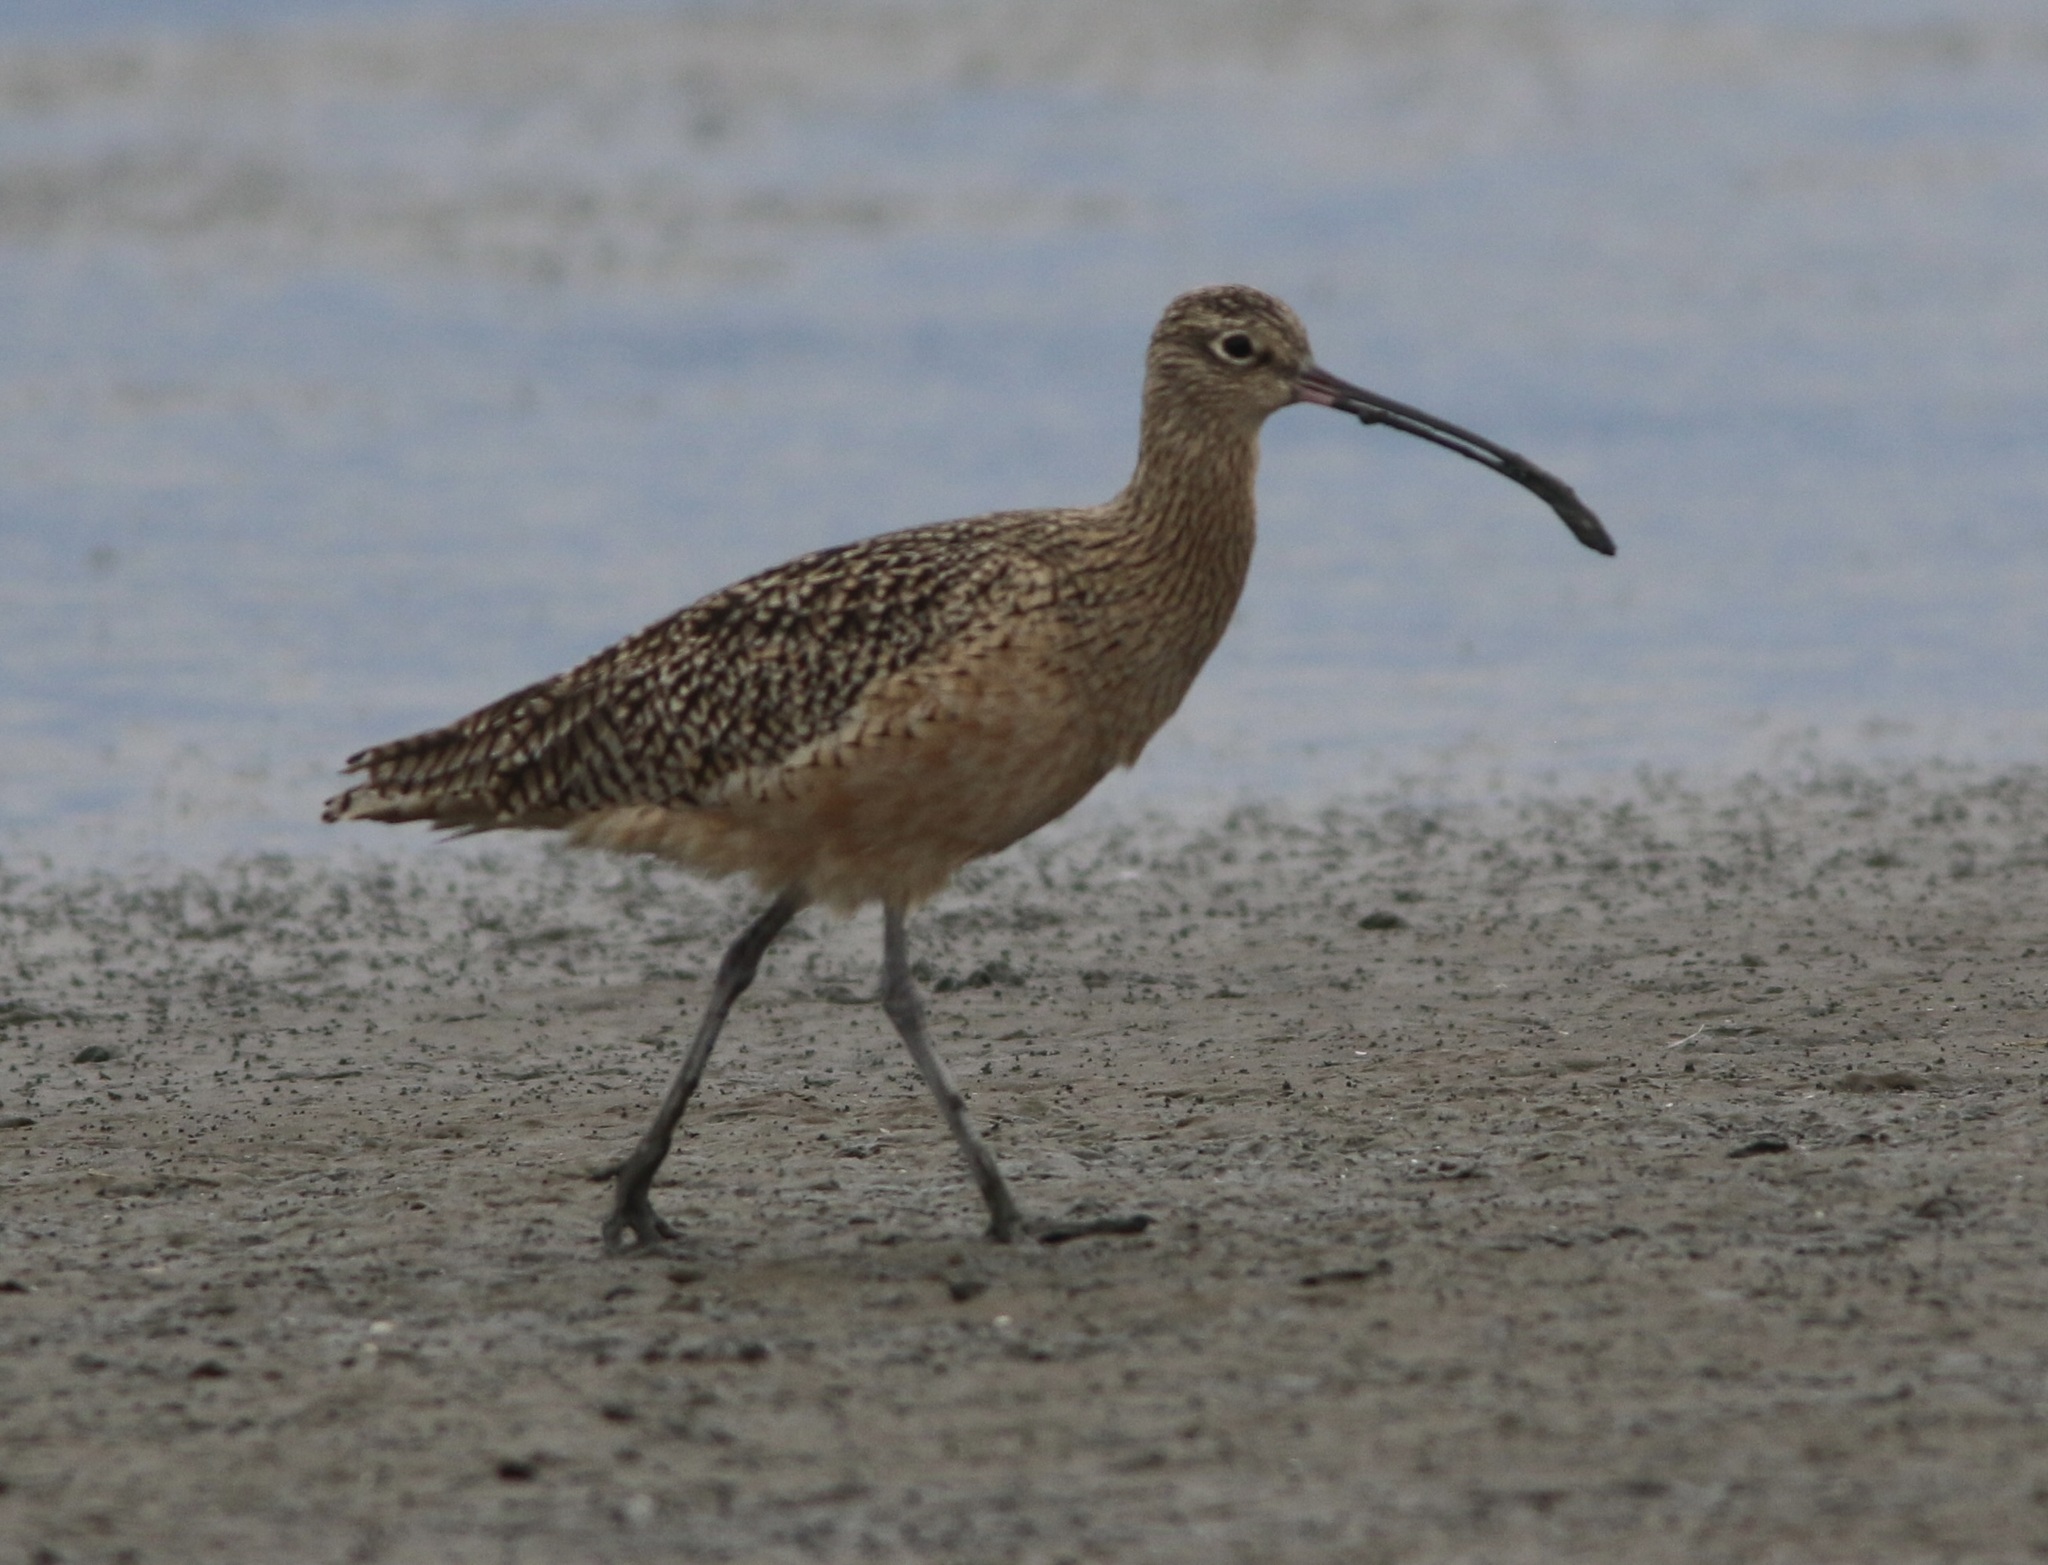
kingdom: Animalia
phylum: Chordata
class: Aves
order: Charadriiformes
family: Scolopacidae
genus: Numenius
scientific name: Numenius americanus
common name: Long-billed curlew
